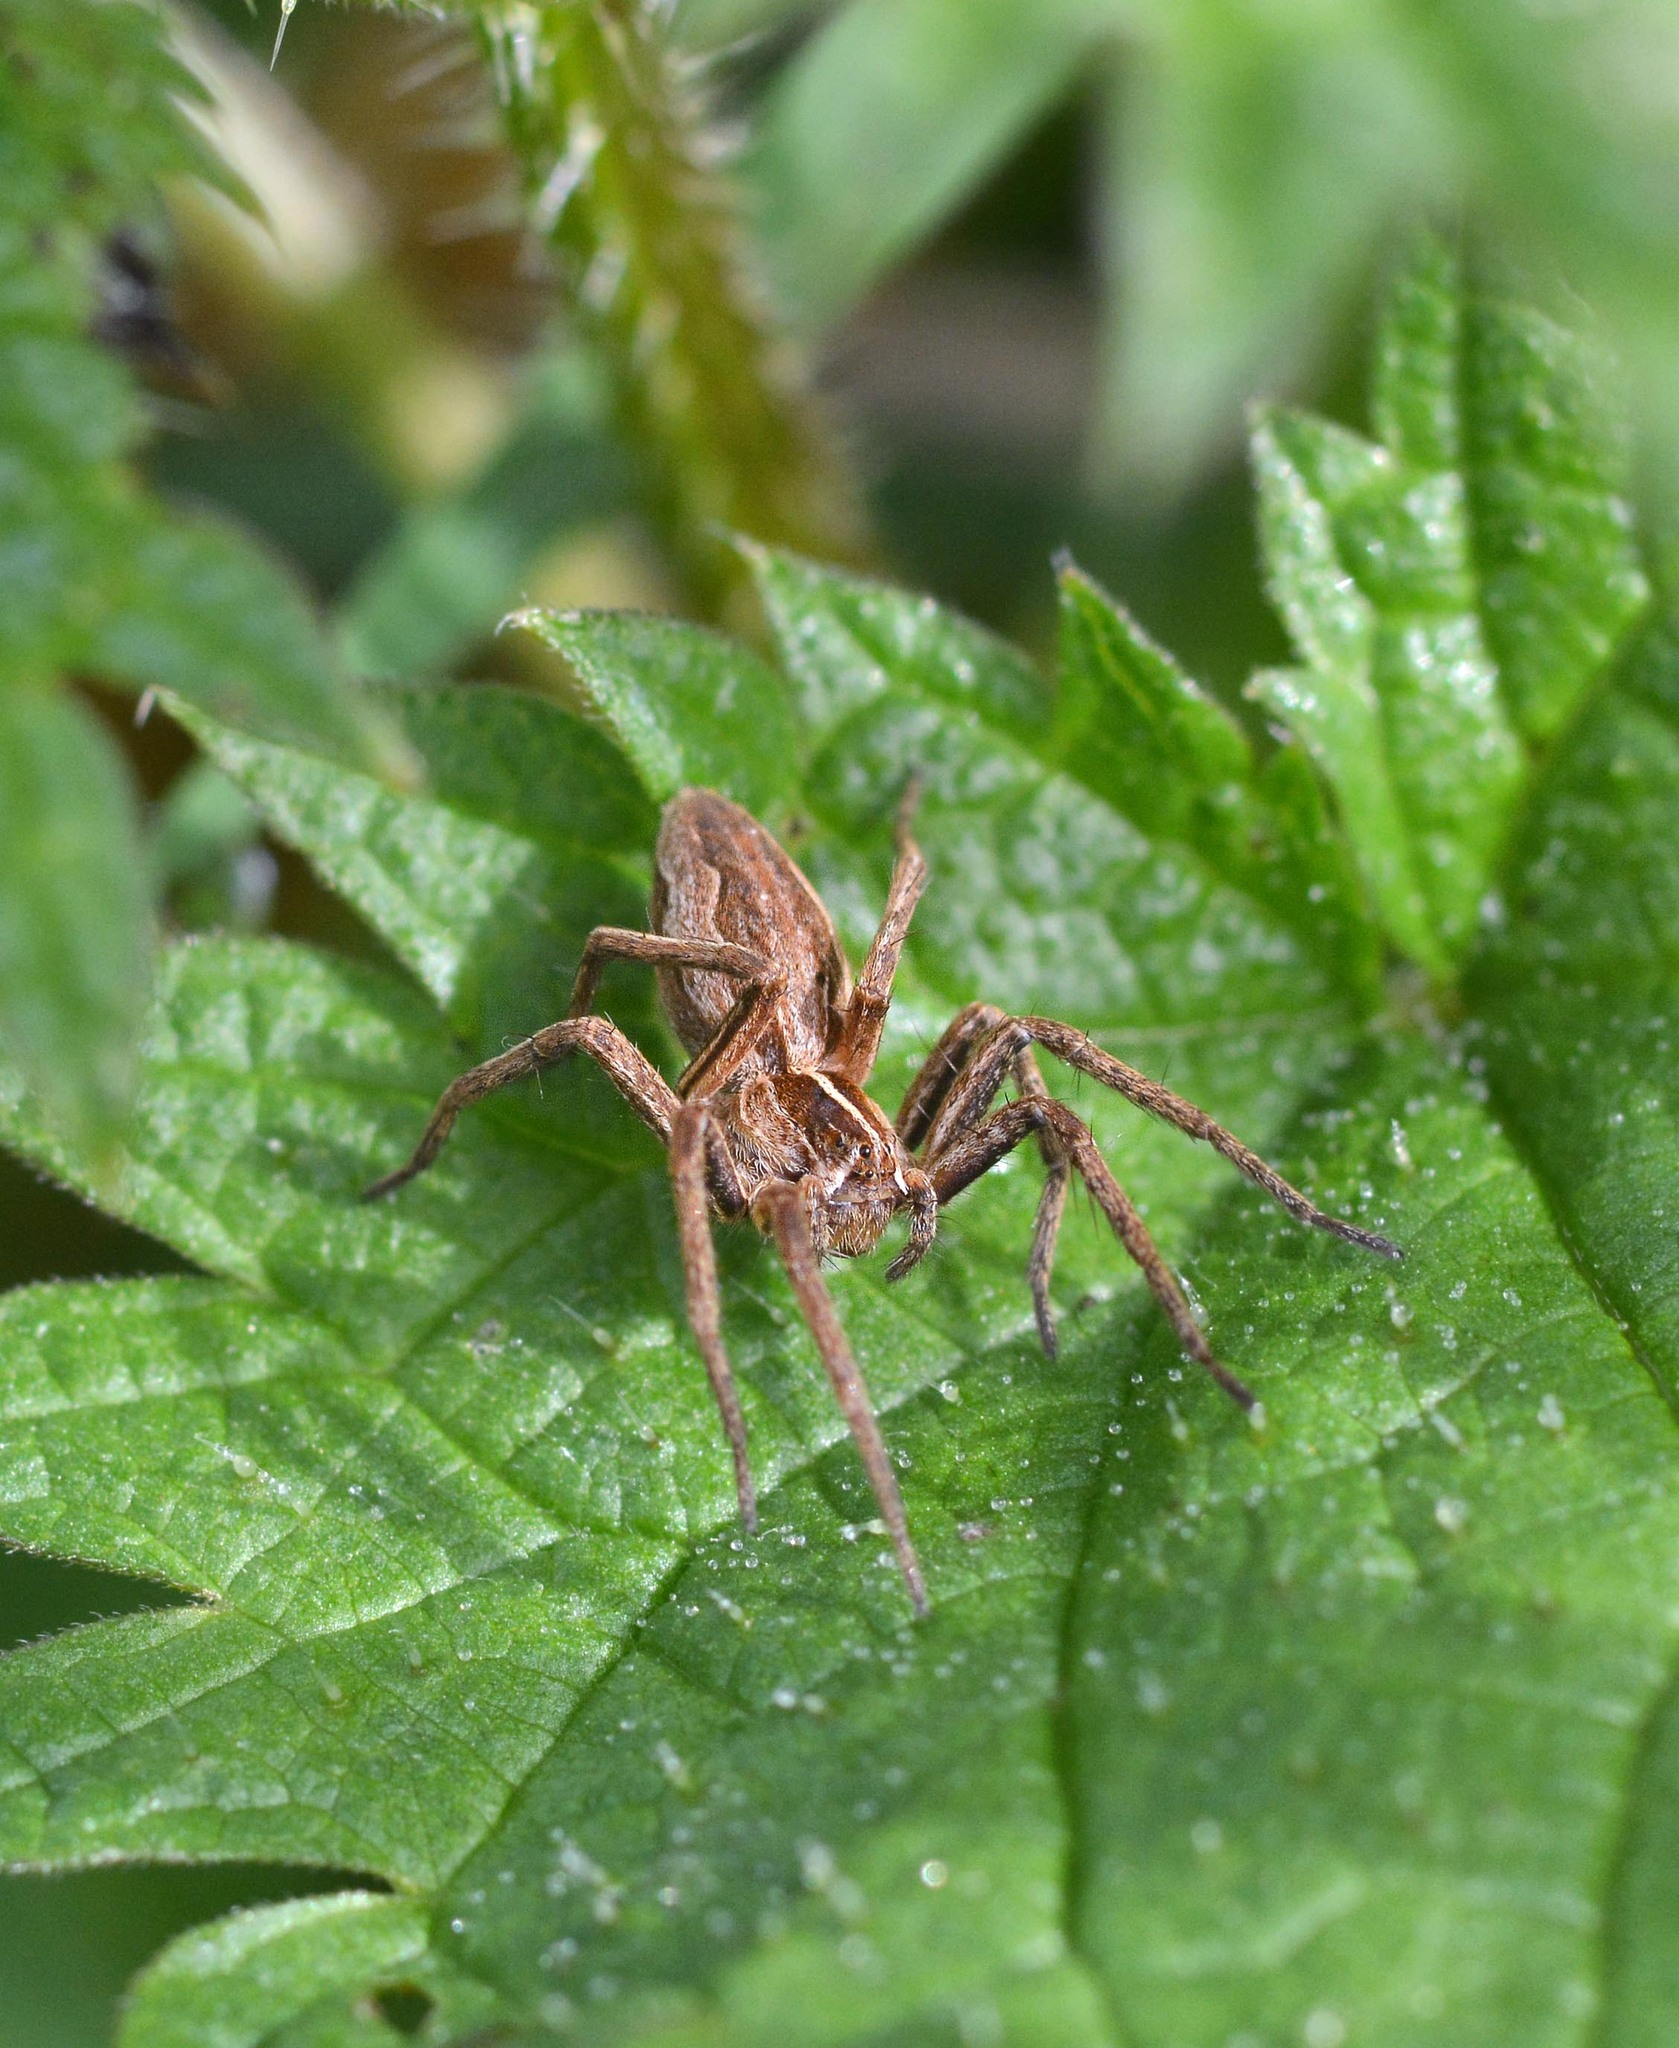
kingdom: Animalia
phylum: Arthropoda
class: Arachnida
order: Araneae
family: Pisauridae
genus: Pisaura
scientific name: Pisaura mirabilis
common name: Tent spider
